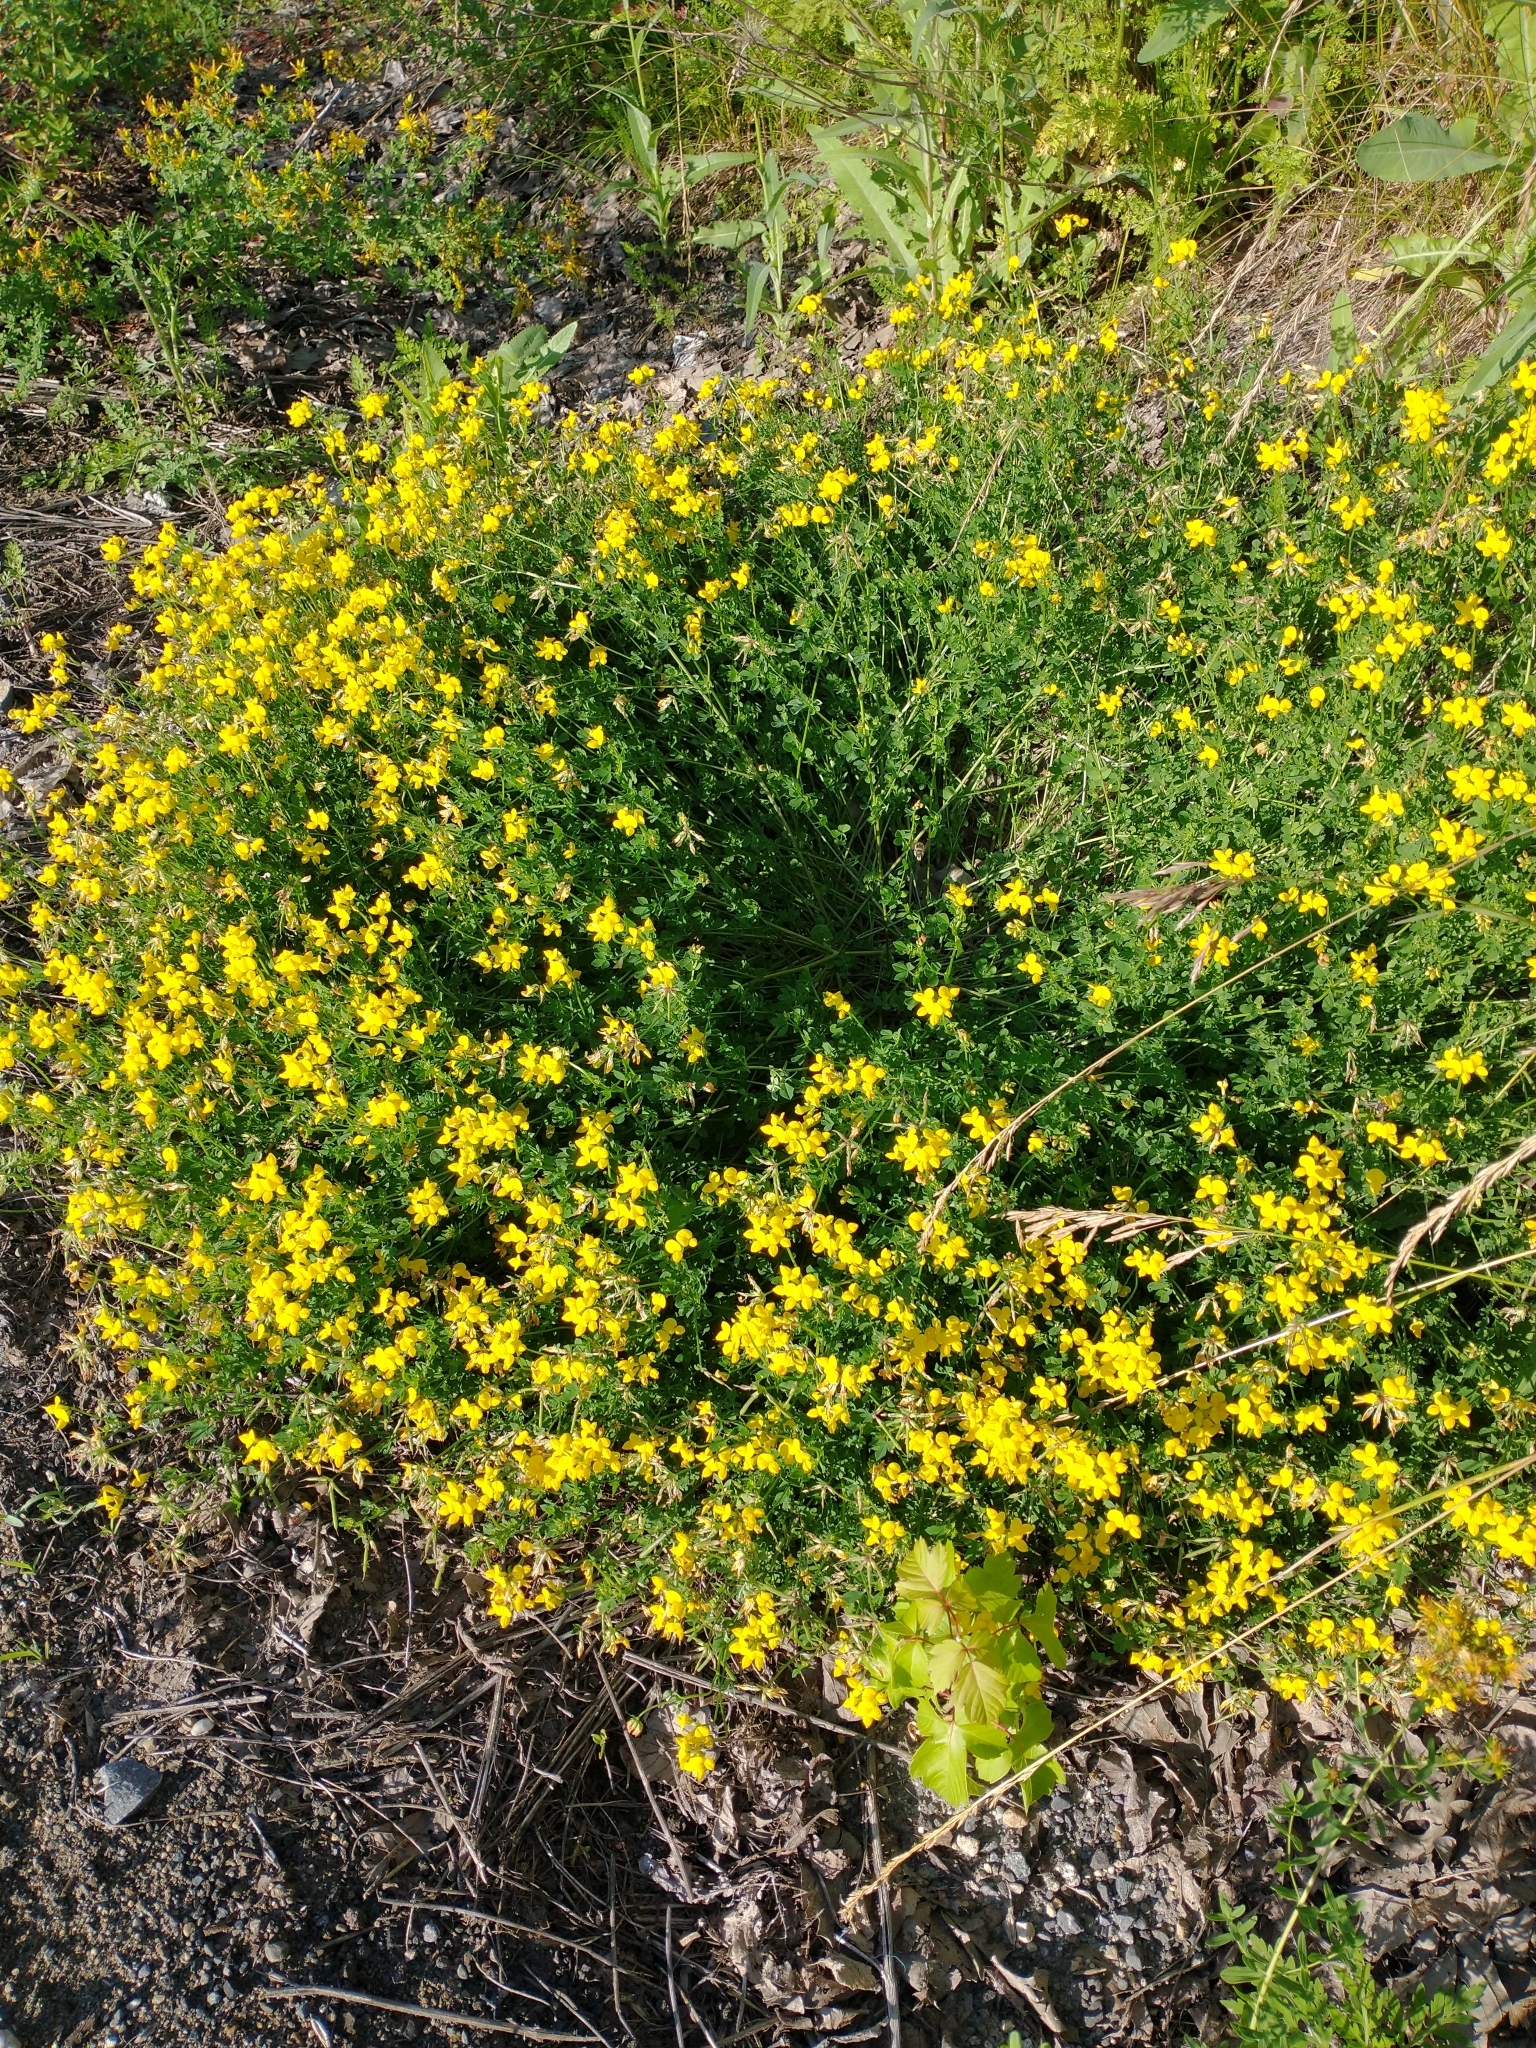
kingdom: Plantae
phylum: Tracheophyta
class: Magnoliopsida
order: Fabales
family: Fabaceae
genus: Lotus
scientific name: Lotus corniculatus
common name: Common bird's-foot-trefoil
